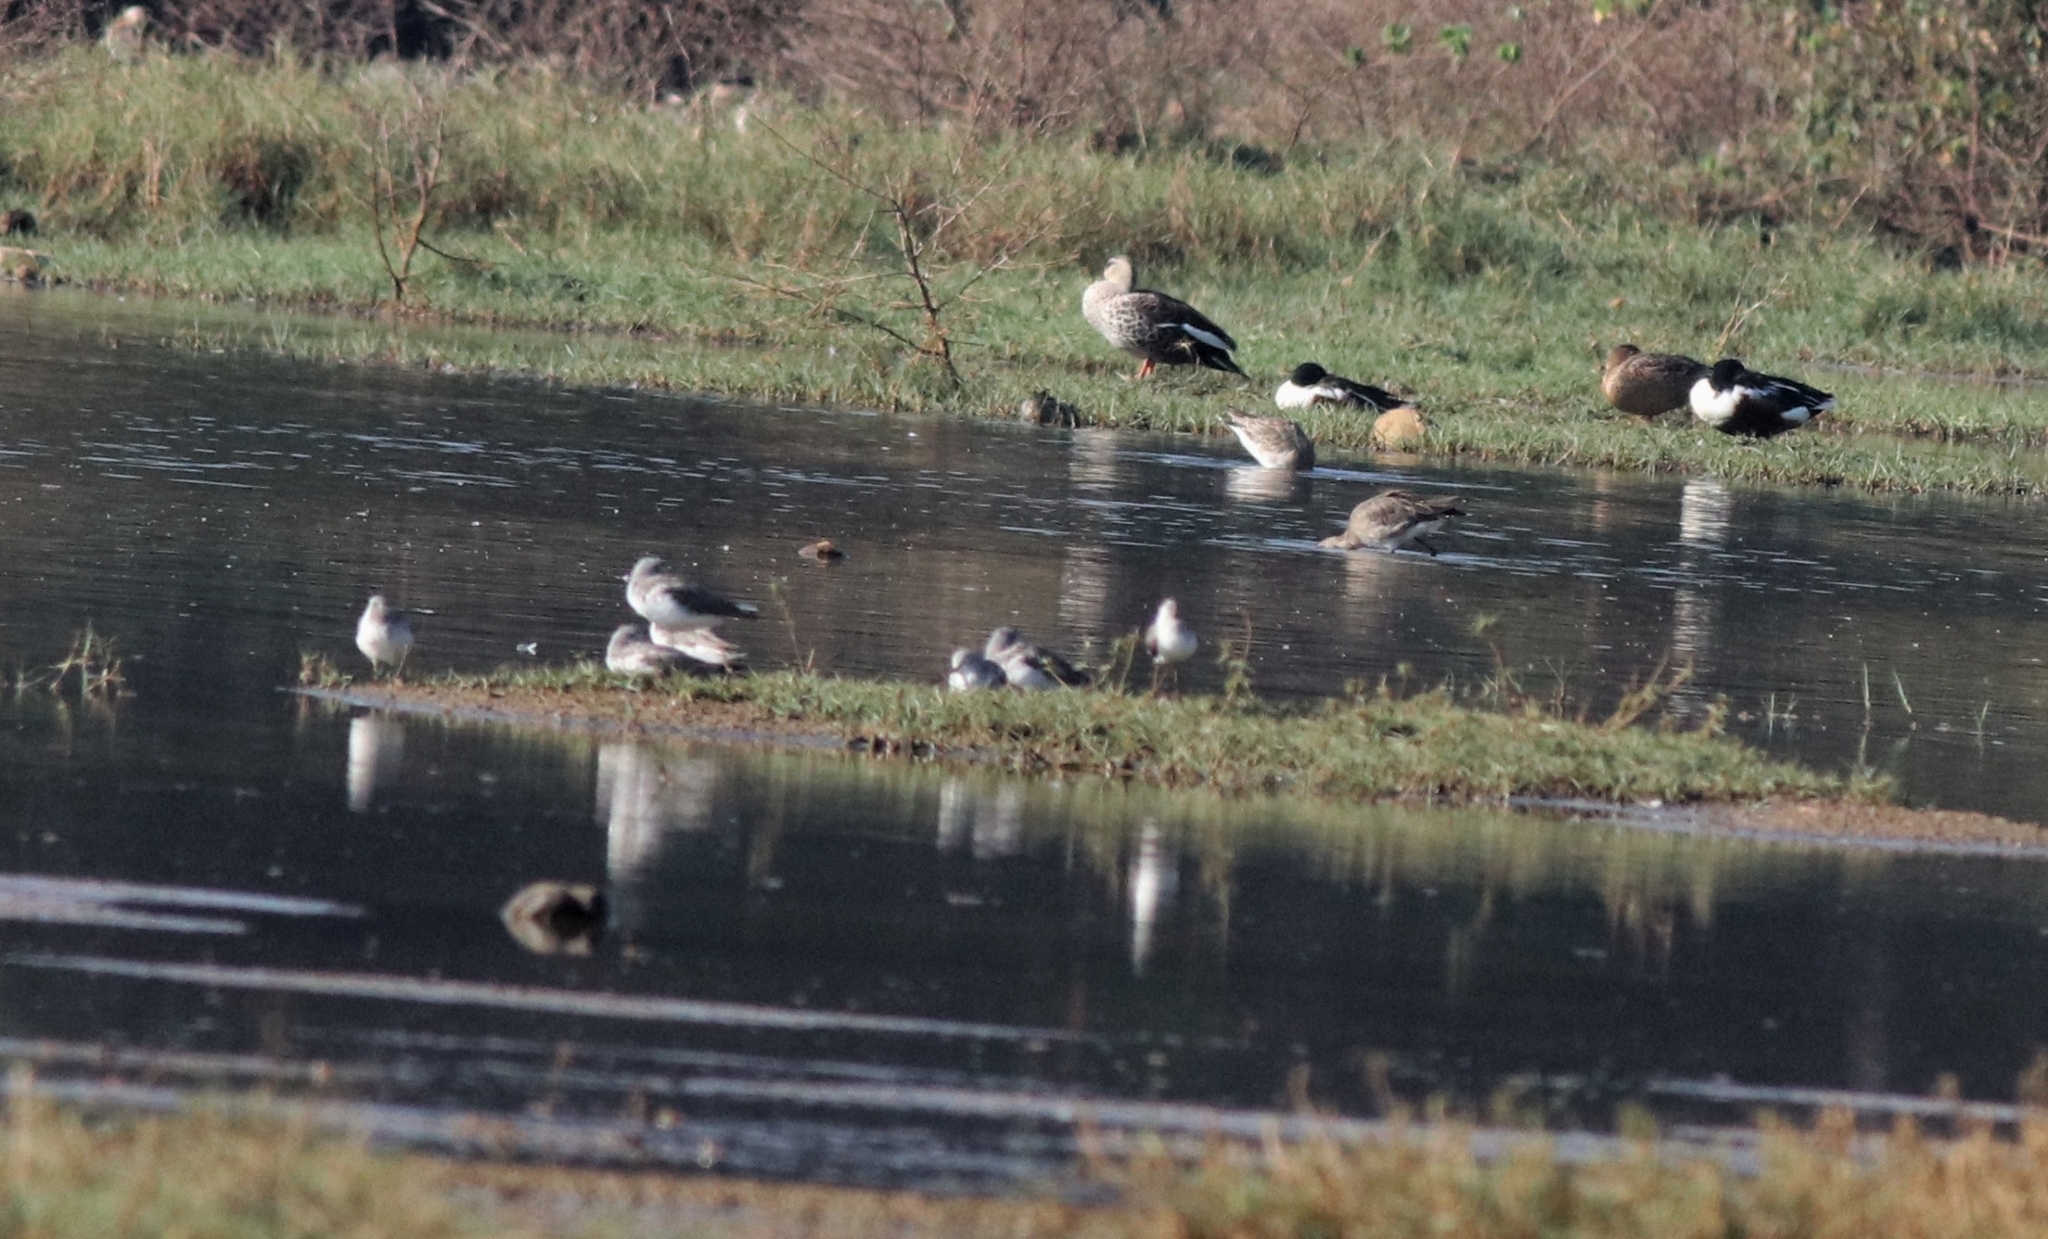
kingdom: Animalia
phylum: Chordata
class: Aves
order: Anseriformes
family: Anatidae
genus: Anas
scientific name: Anas poecilorhyncha
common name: Indian spot-billed duck
